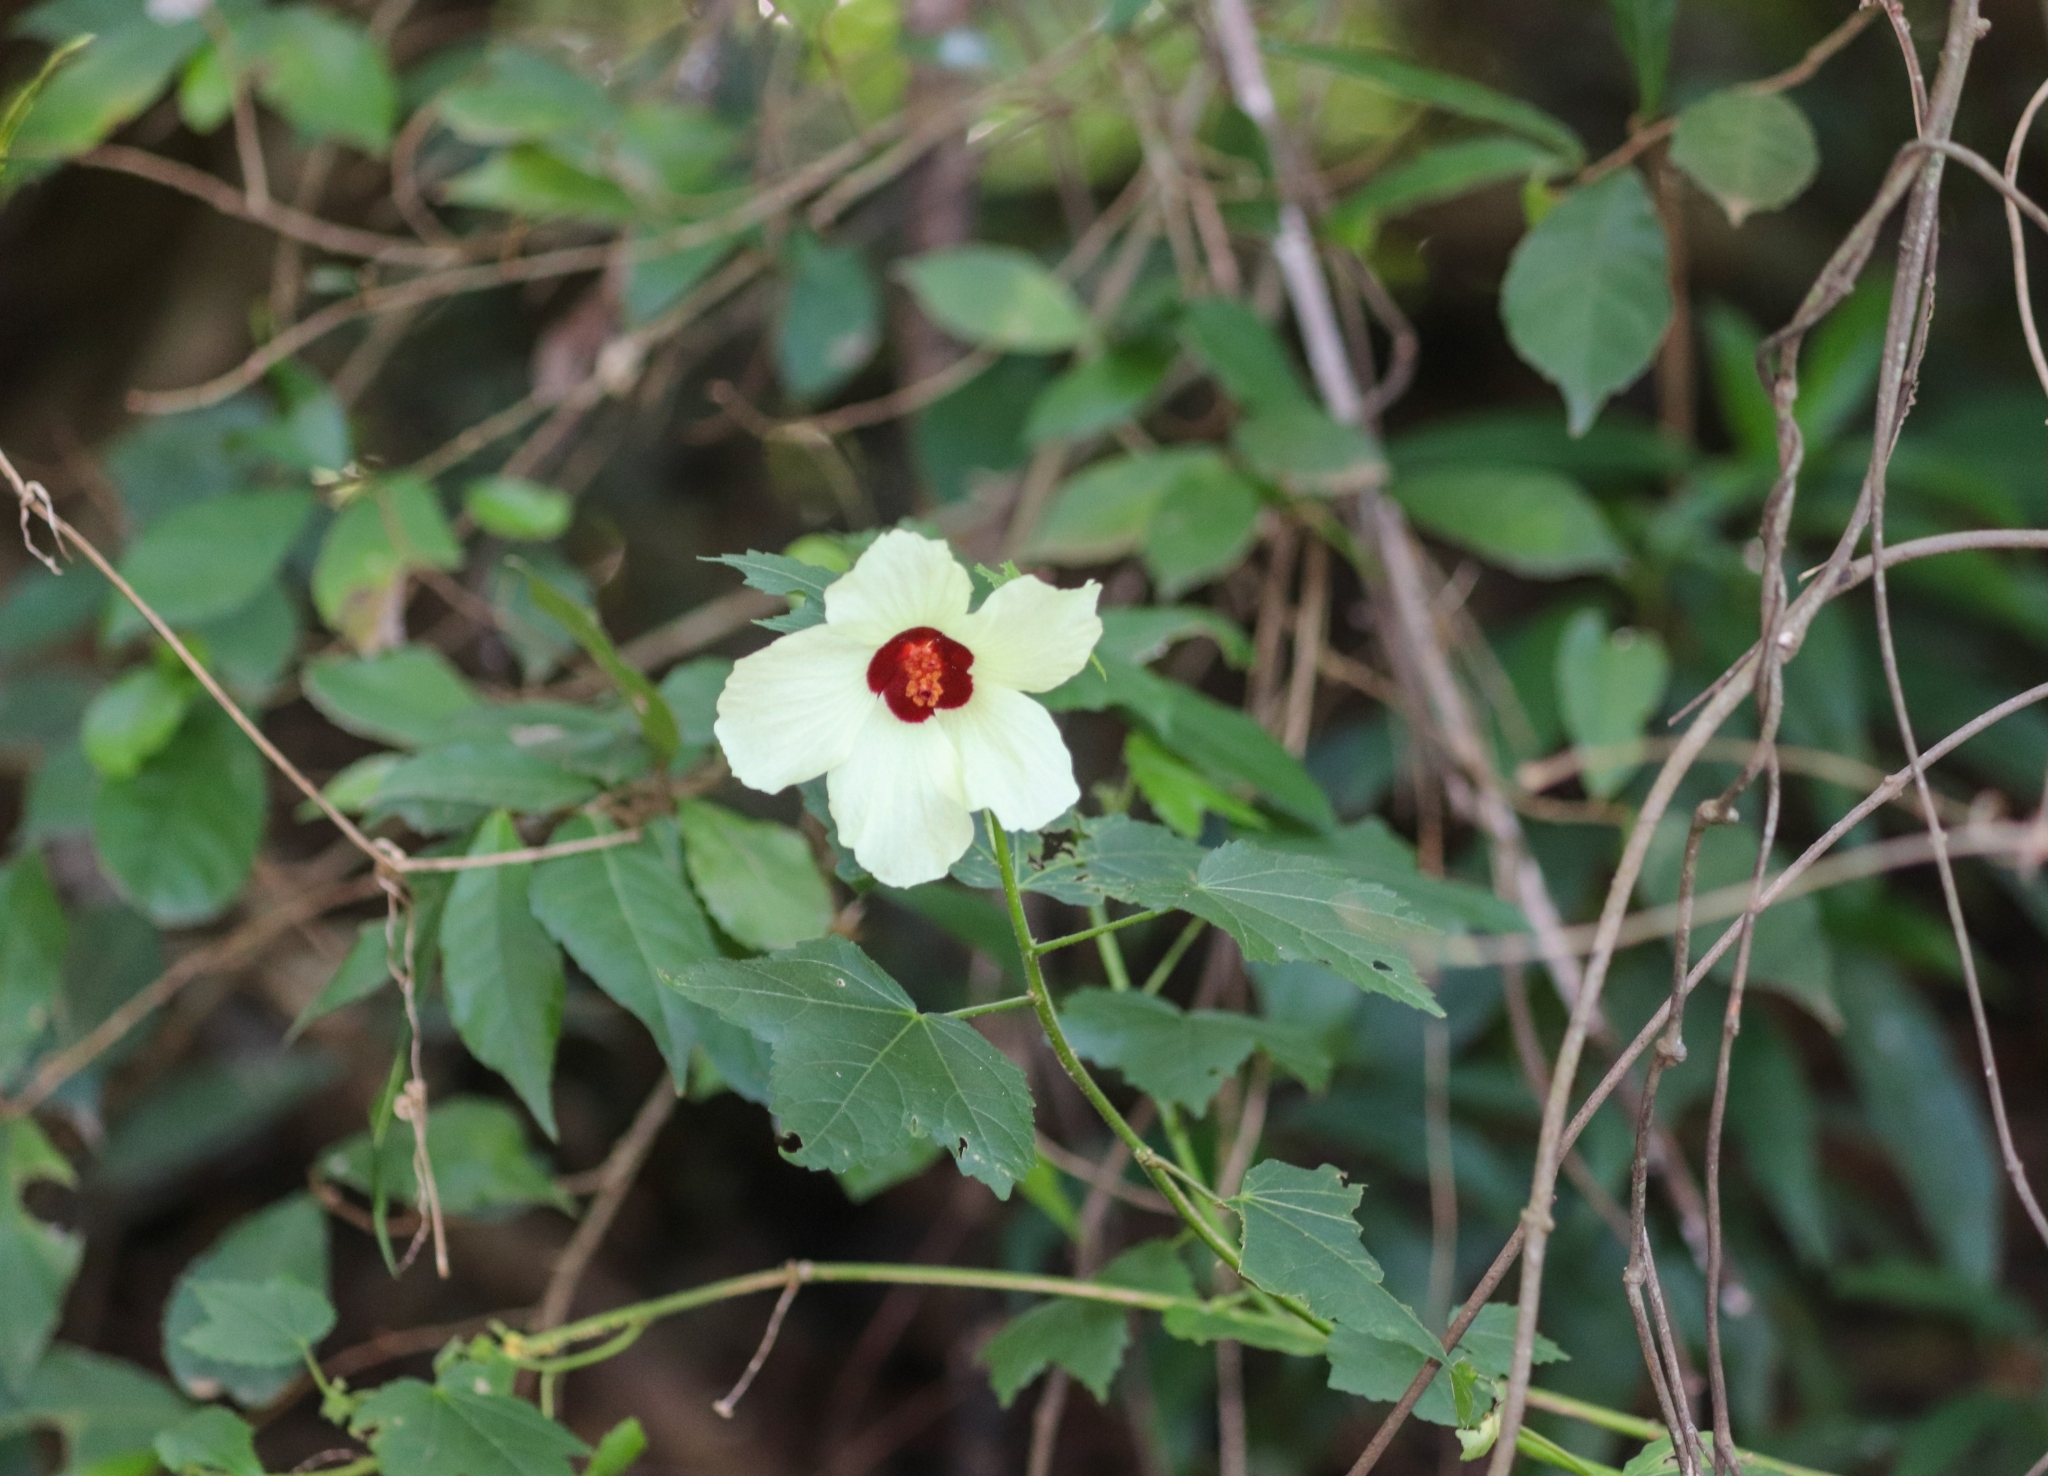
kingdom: Plantae
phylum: Tracheophyta
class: Magnoliopsida
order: Malvales
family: Malvaceae
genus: Hibiscus
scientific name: Hibiscus vitifolius
